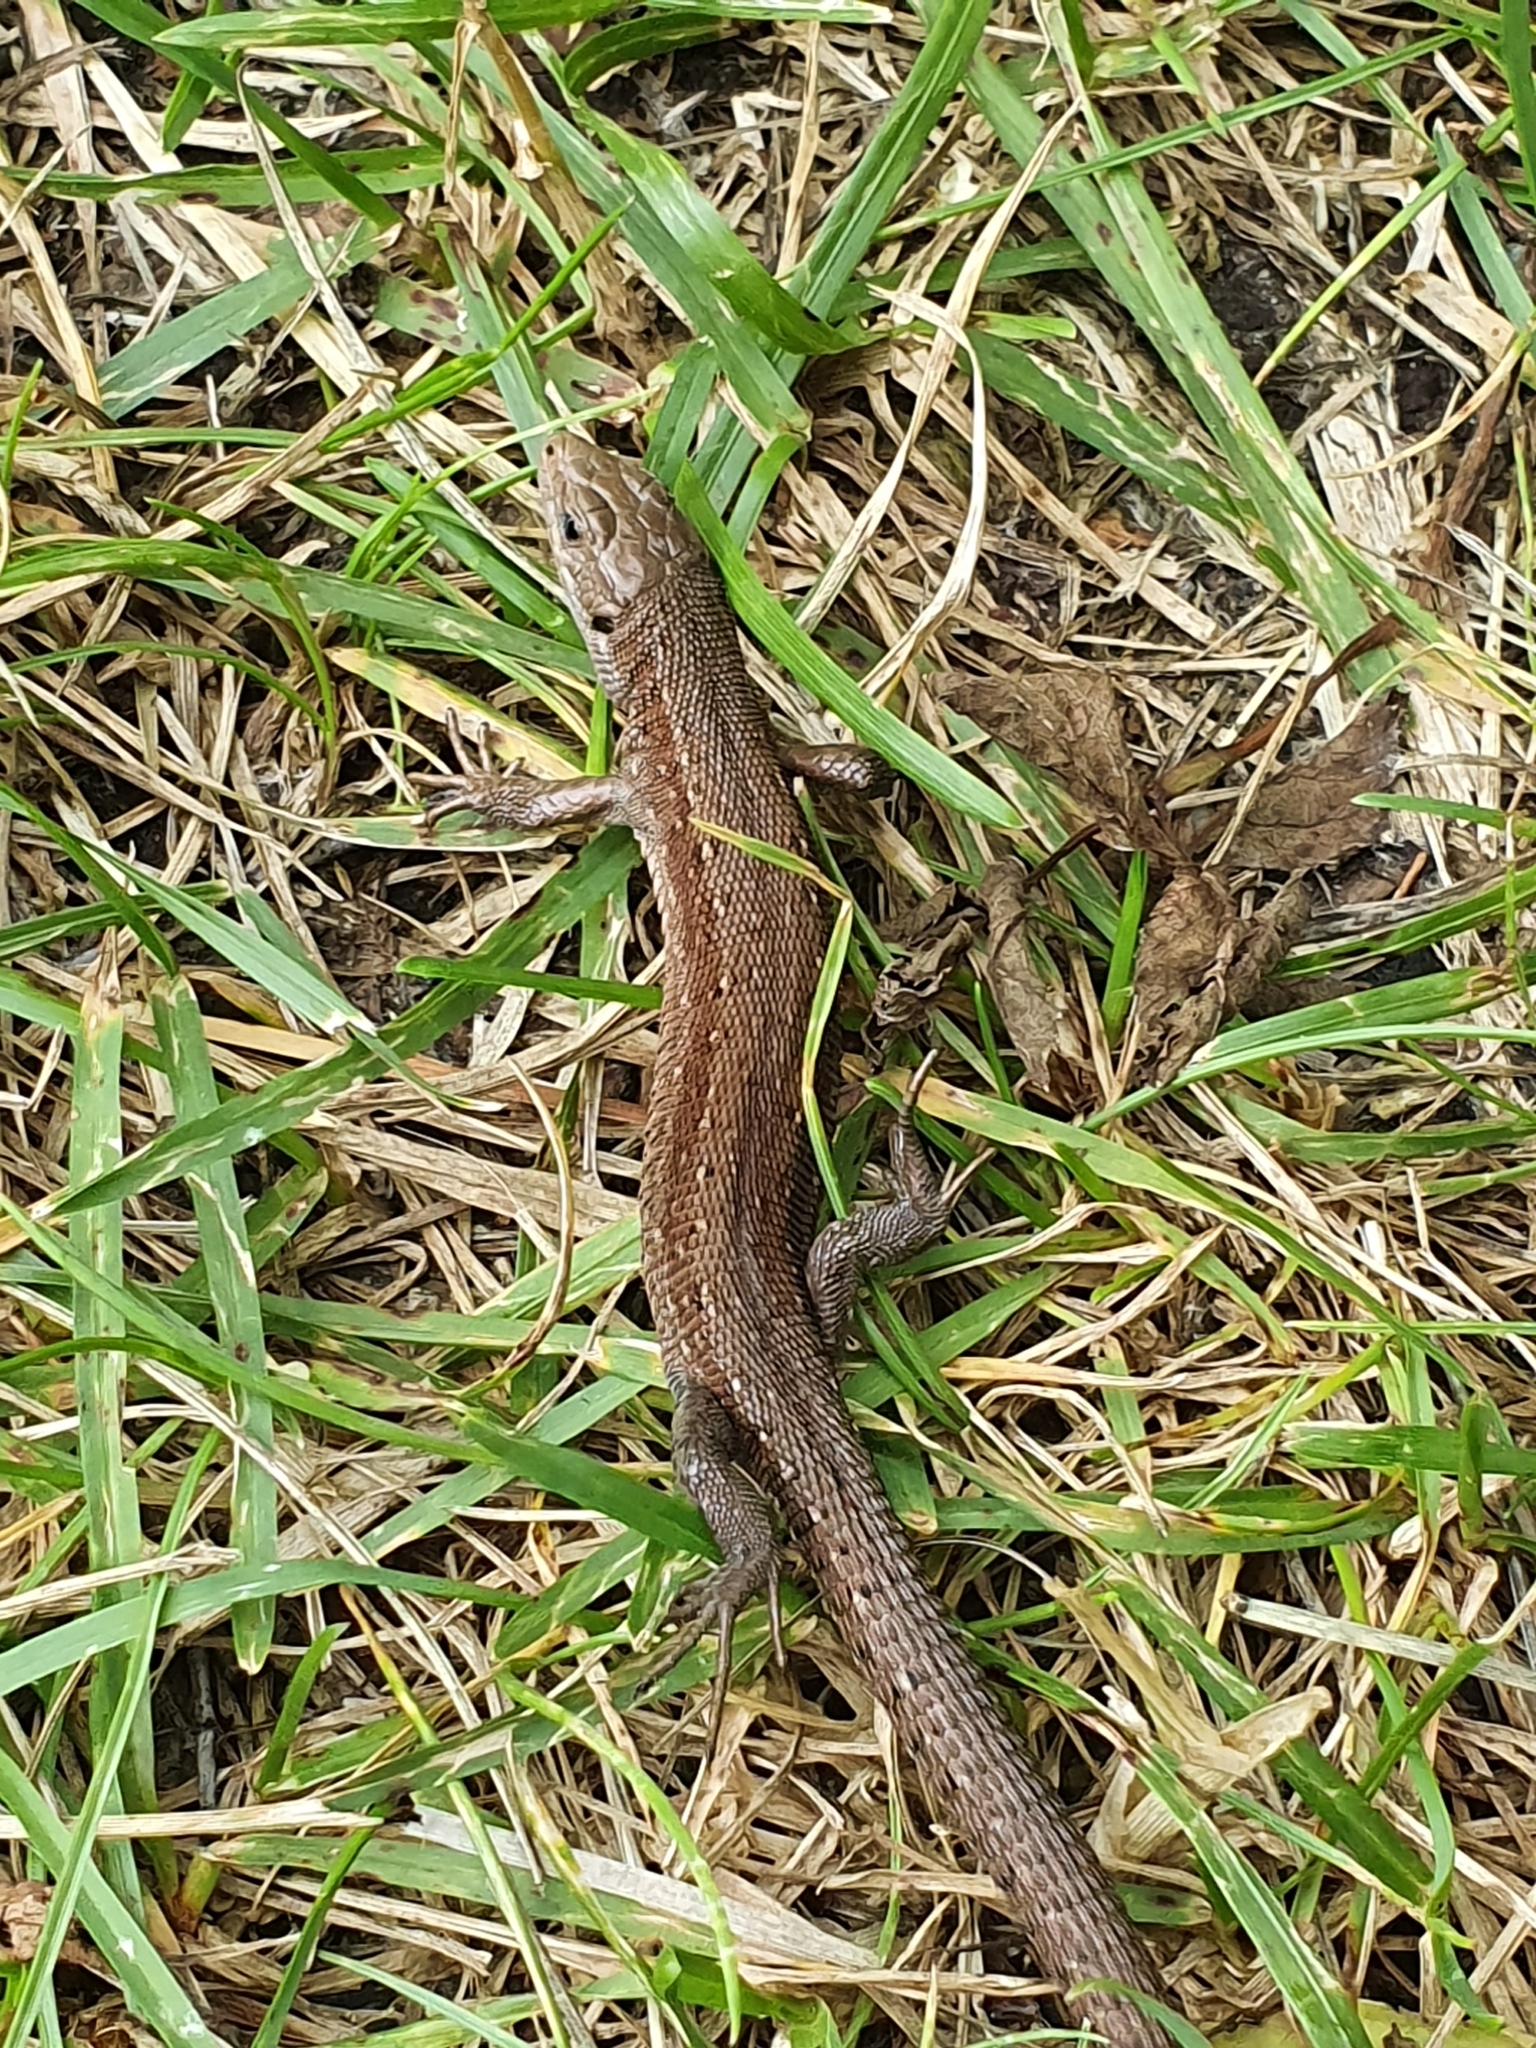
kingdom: Animalia
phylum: Chordata
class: Squamata
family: Lacertidae
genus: Zootoca
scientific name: Zootoca vivipara
